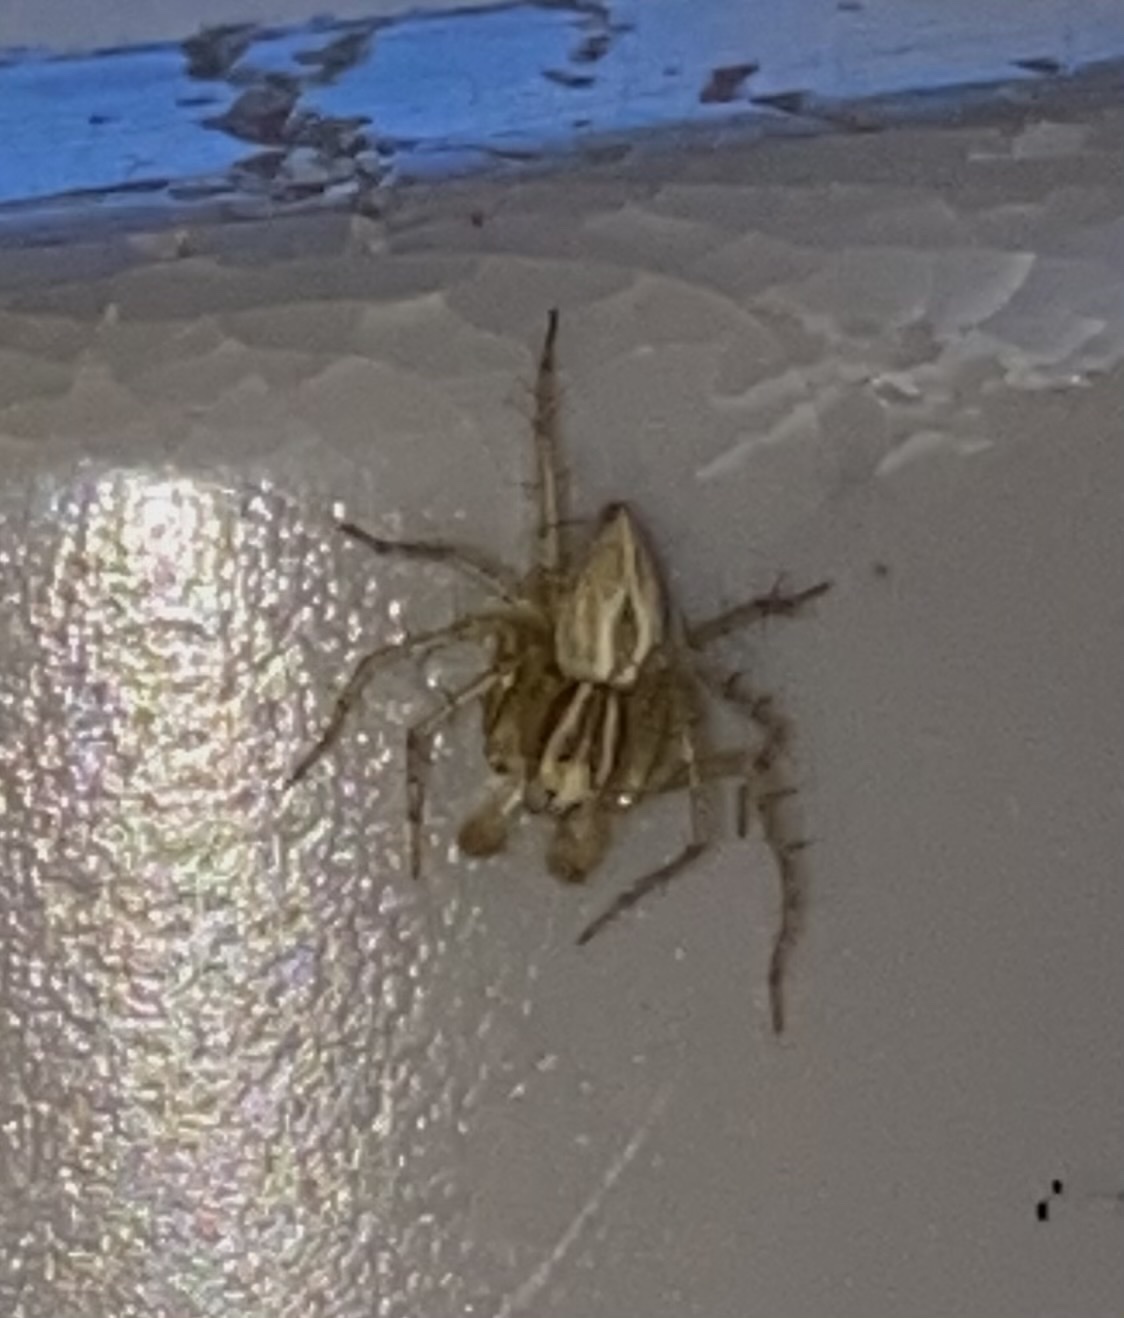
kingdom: Animalia
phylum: Arthropoda
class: Arachnida
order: Araneae
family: Oxyopidae
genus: Oxyopes
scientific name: Oxyopes salticus
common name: Lynx spiders
